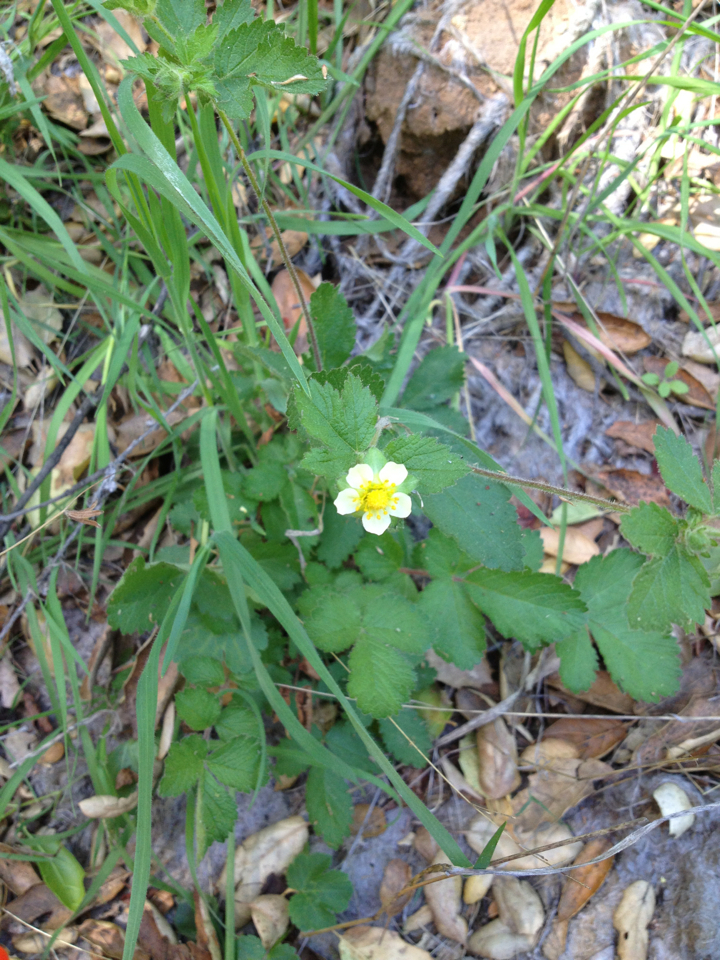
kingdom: Plantae
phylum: Tracheophyta
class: Magnoliopsida
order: Rosales
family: Rosaceae
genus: Drymocallis
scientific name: Drymocallis glandulosa
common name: Sticky cinquefoil
